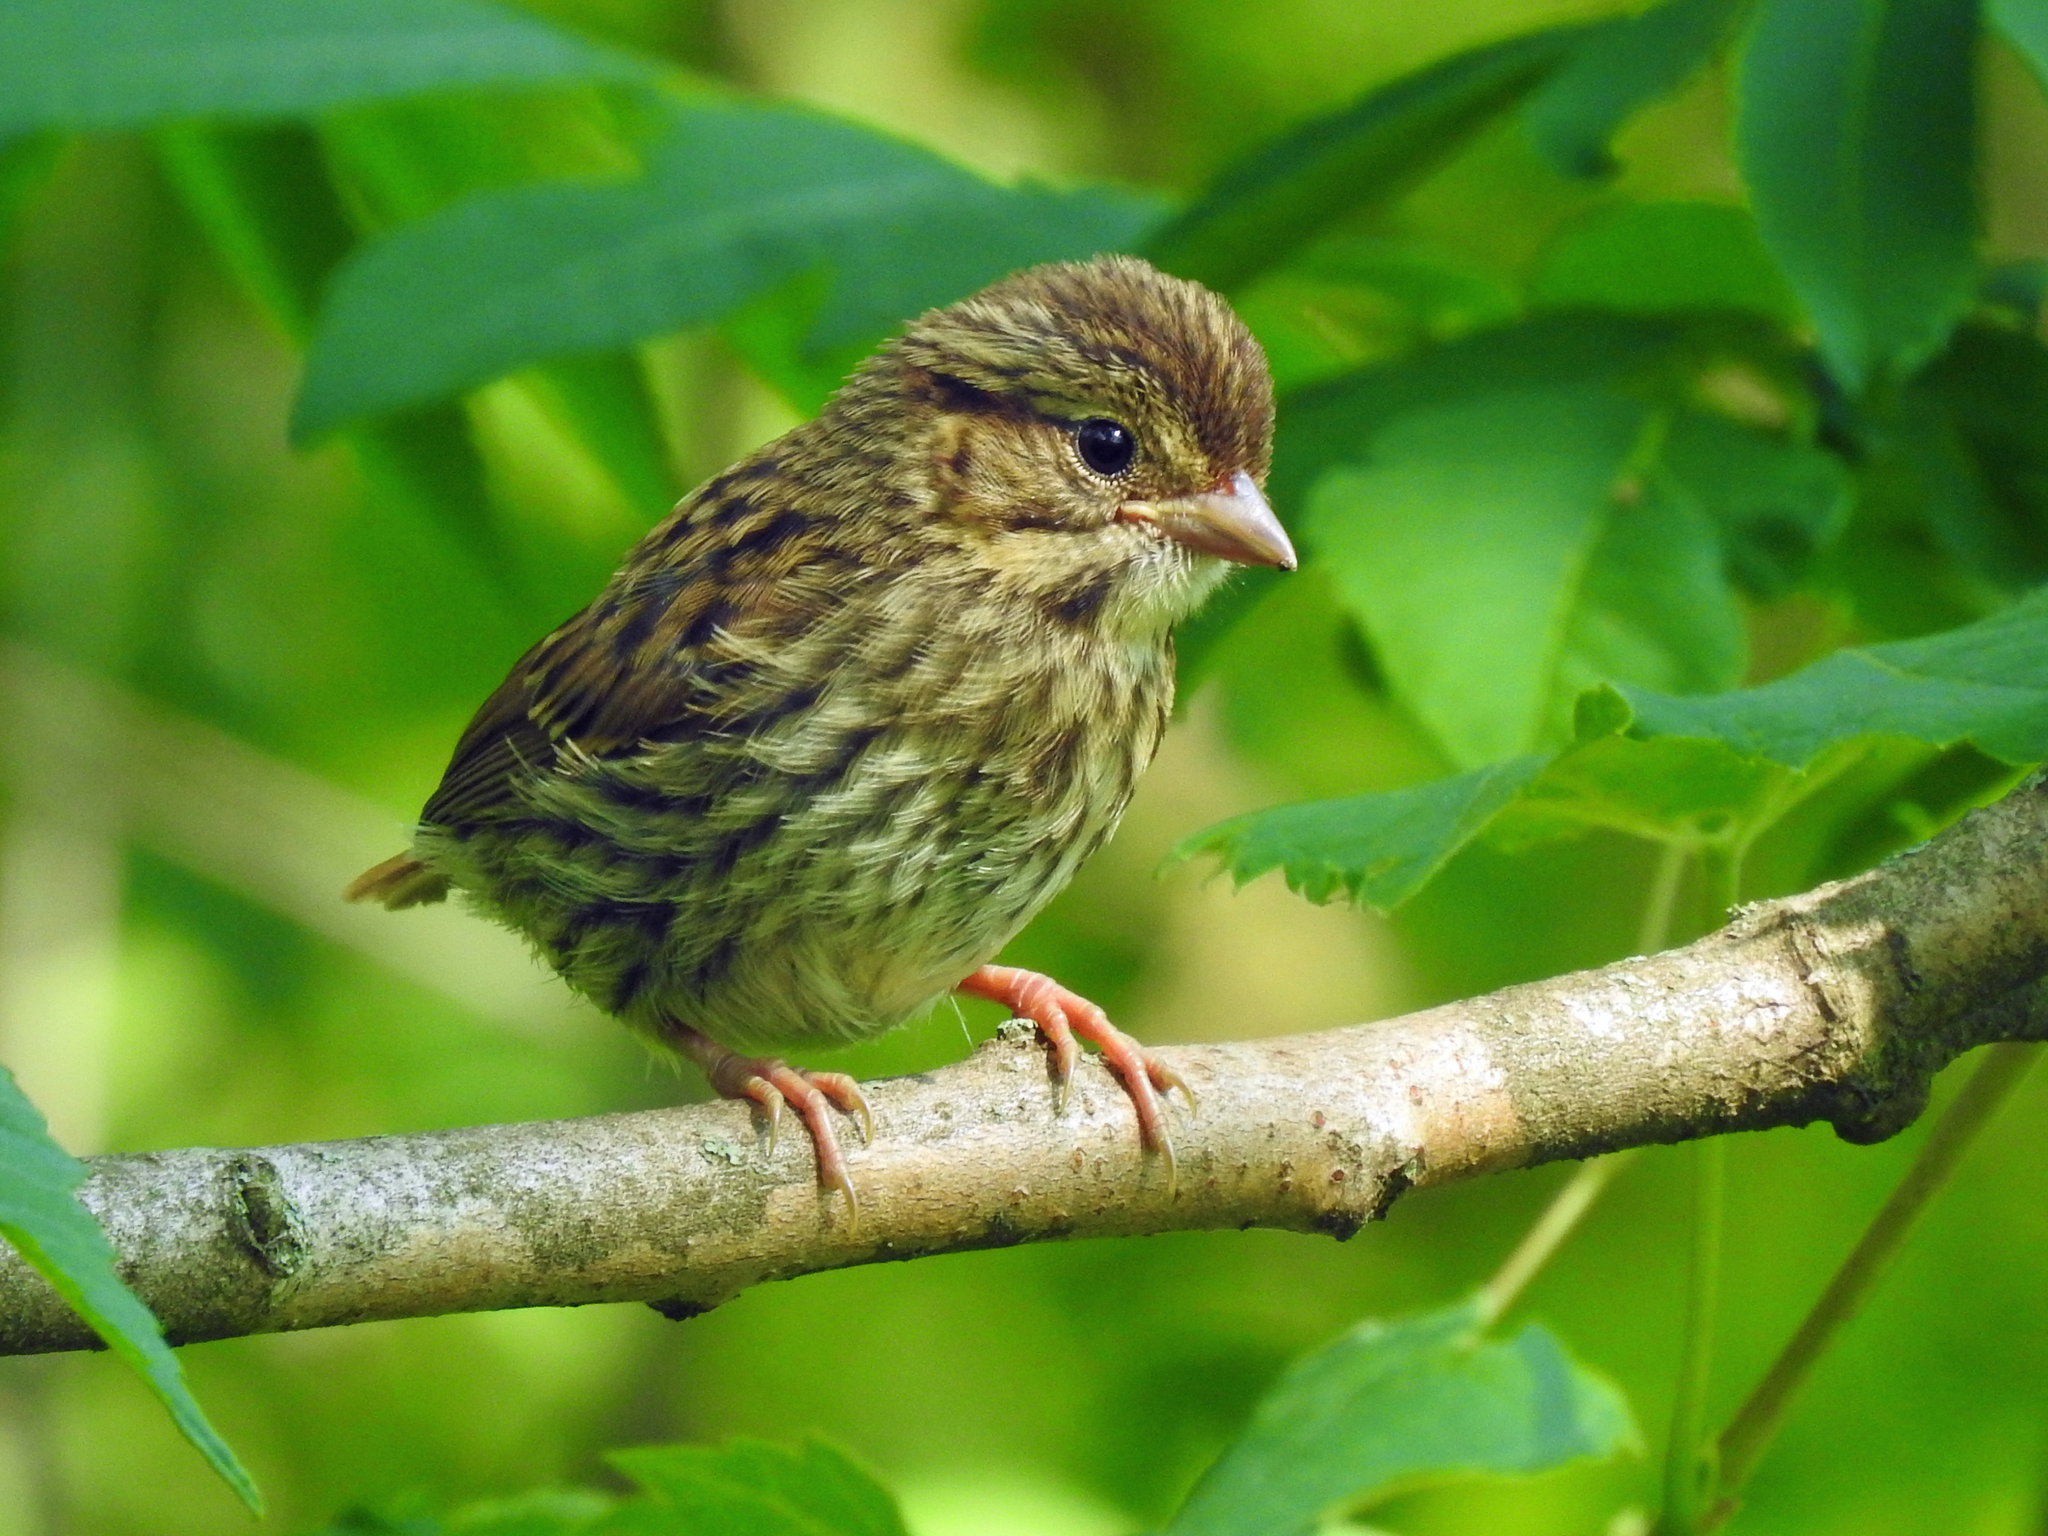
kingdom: Animalia
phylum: Chordata
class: Aves
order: Passeriformes
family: Passerellidae
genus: Passerculus
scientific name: Passerculus sandwichensis
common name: Savannah sparrow
